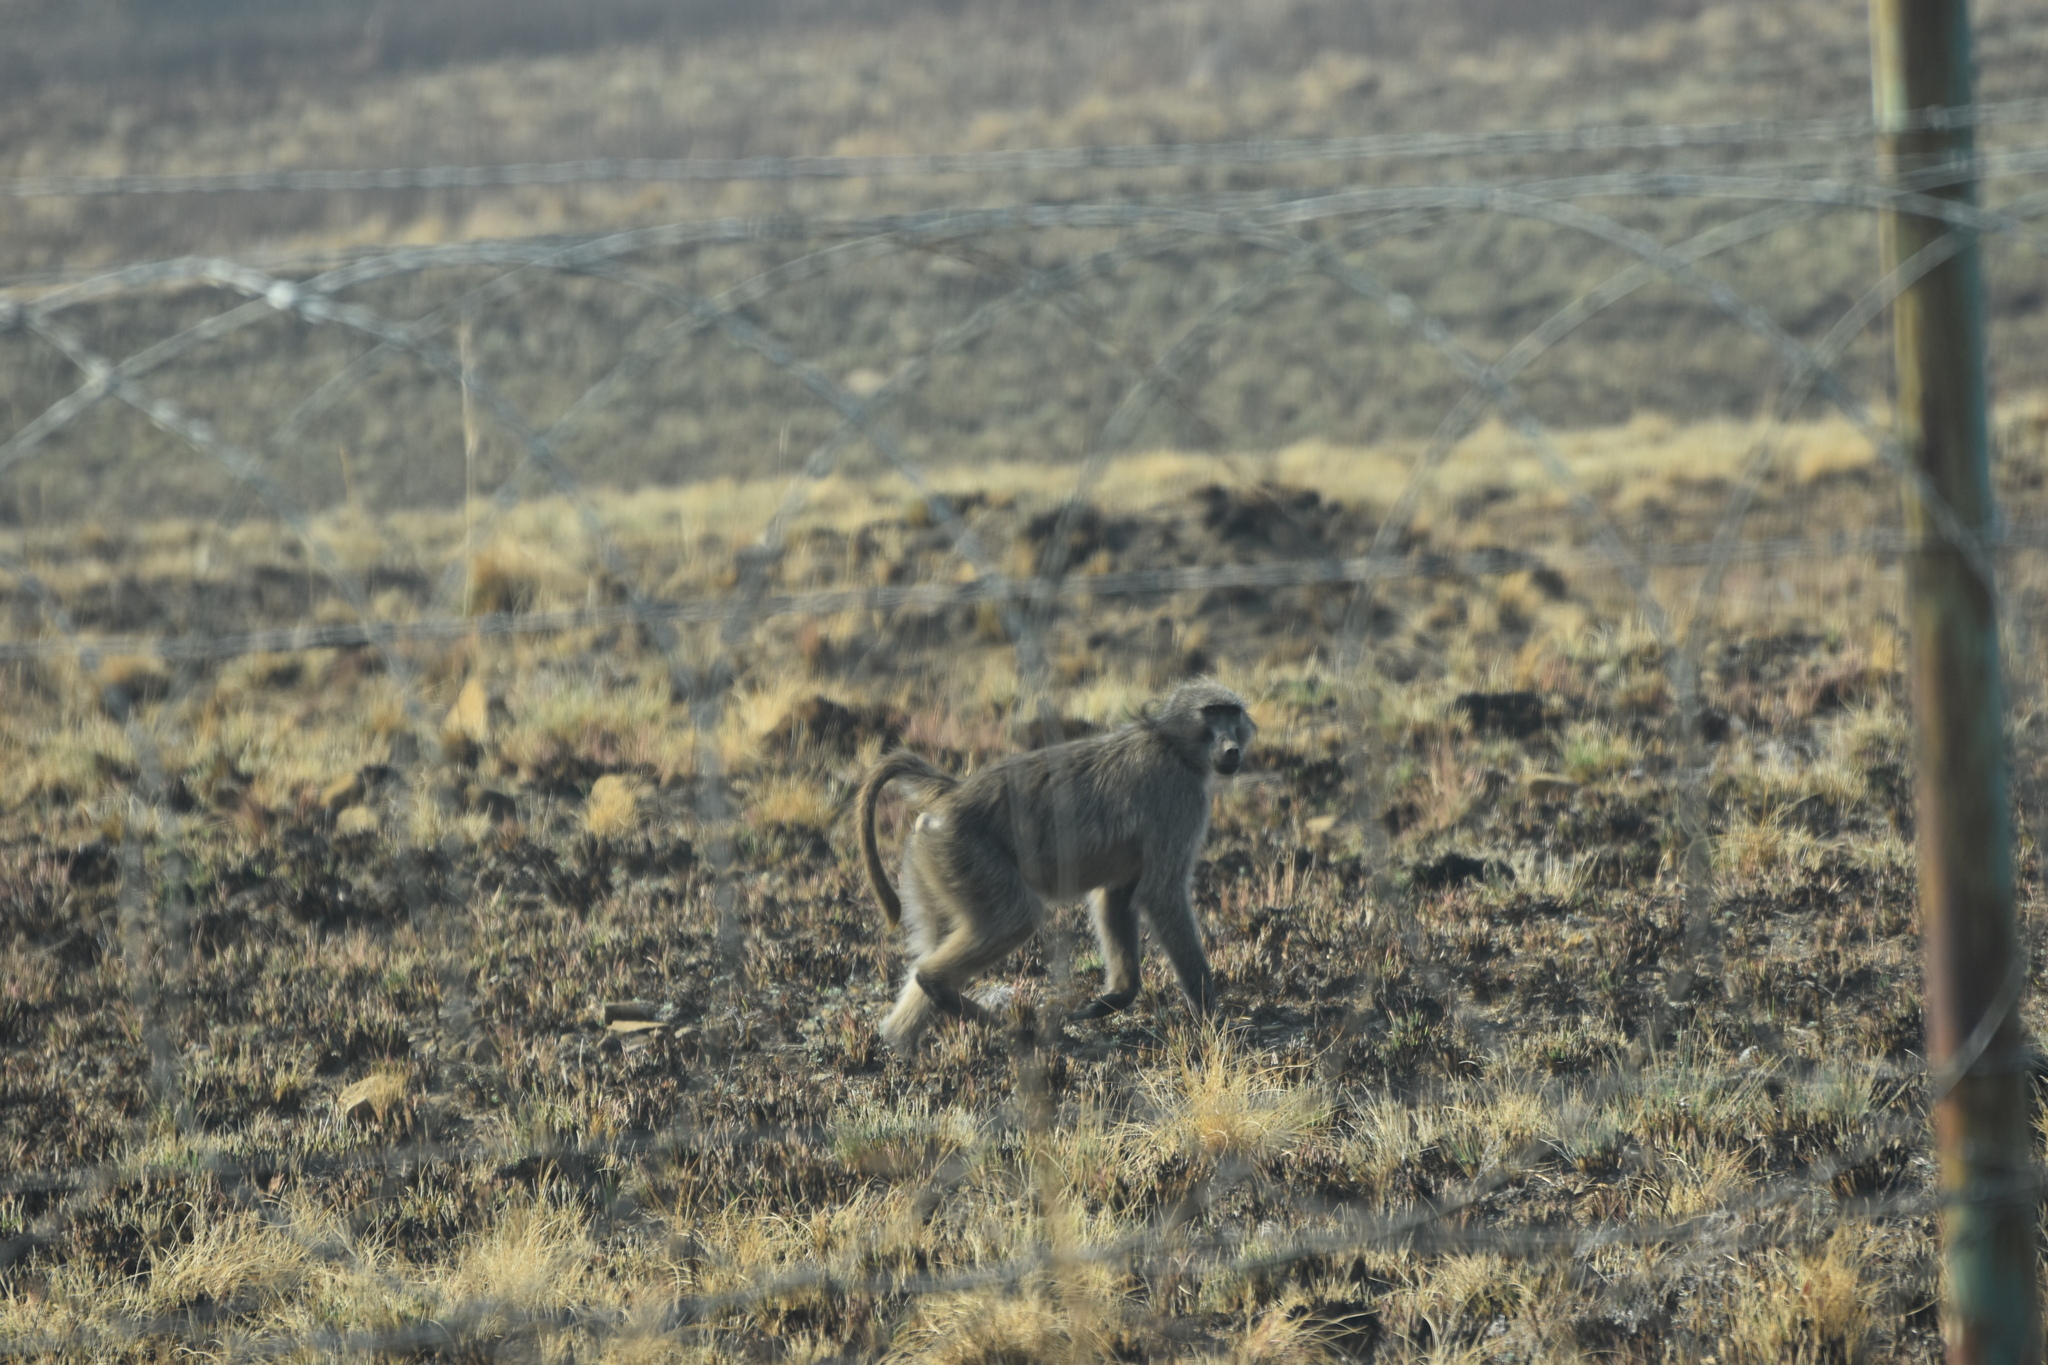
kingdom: Animalia
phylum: Chordata
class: Mammalia
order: Primates
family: Cercopithecidae
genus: Papio
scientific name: Papio ursinus
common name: Chacma baboon
